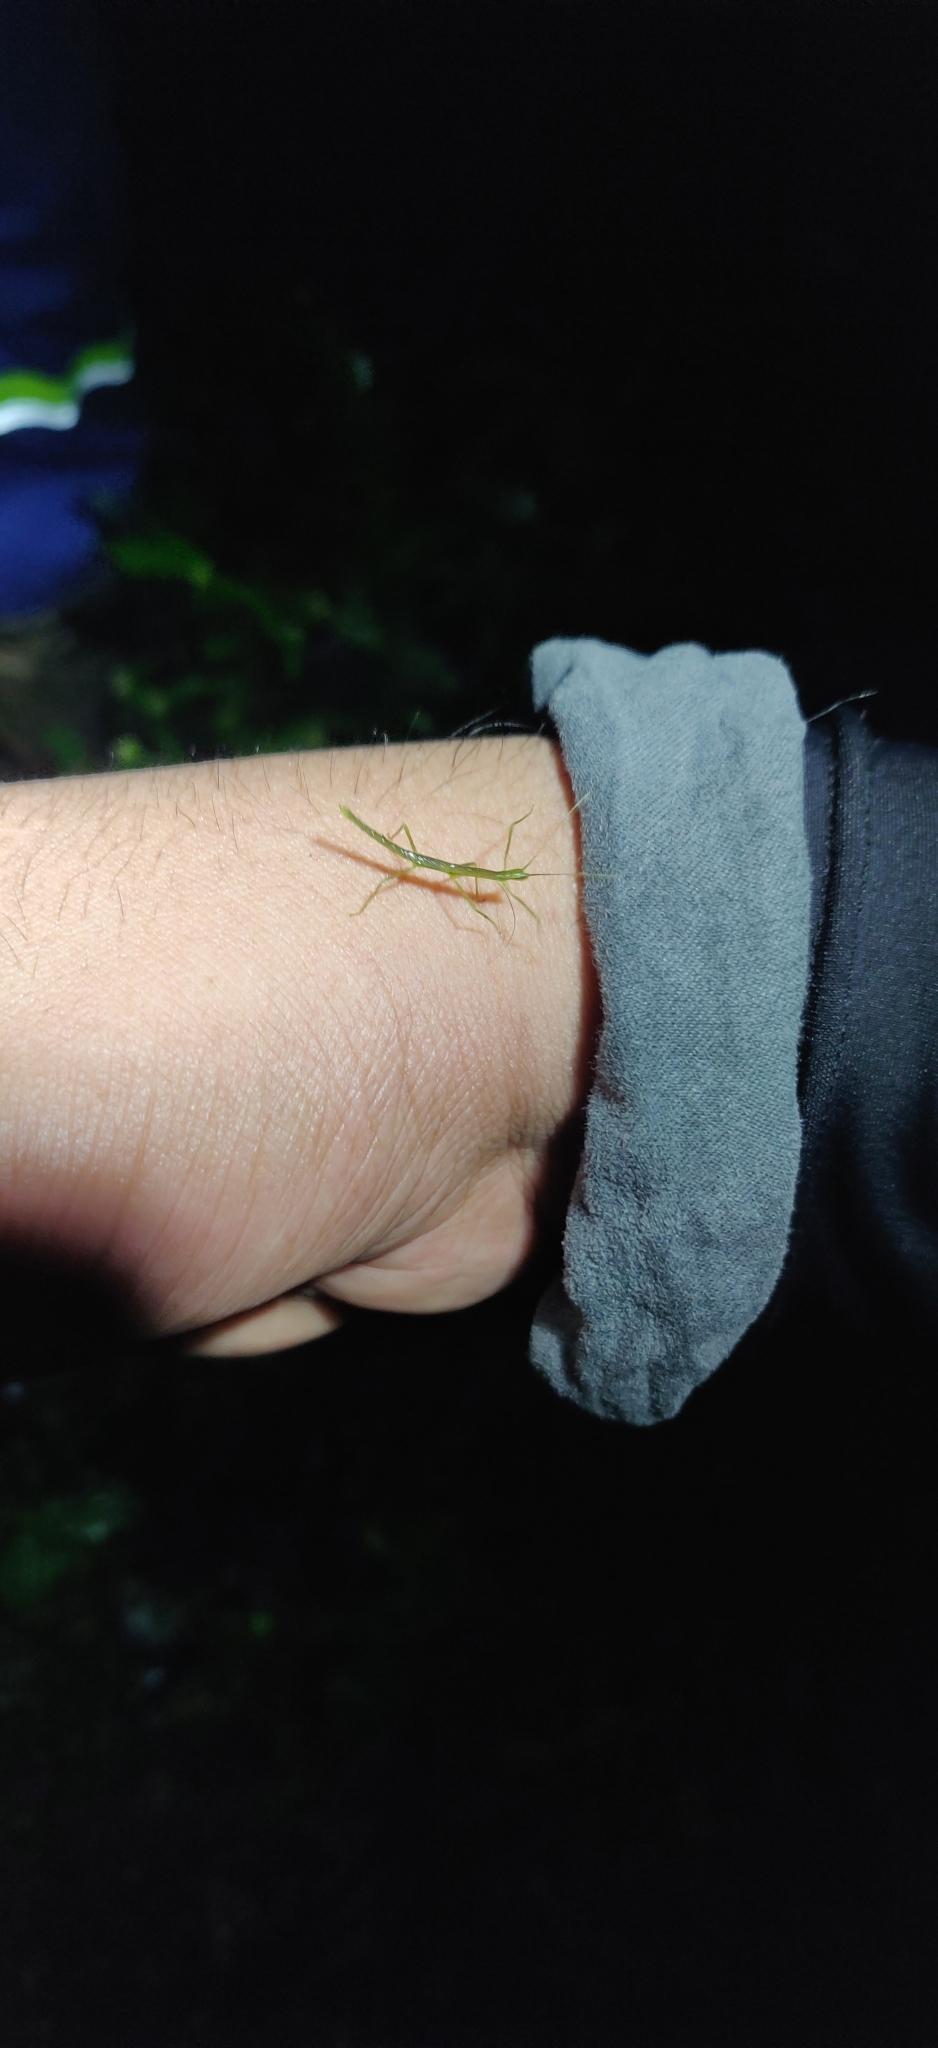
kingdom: Animalia
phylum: Arthropoda
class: Insecta
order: Phasmida
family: Diapheromeridae
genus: Ocnophiloidea
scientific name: Ocnophiloidea regularis
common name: Trinidad twig
